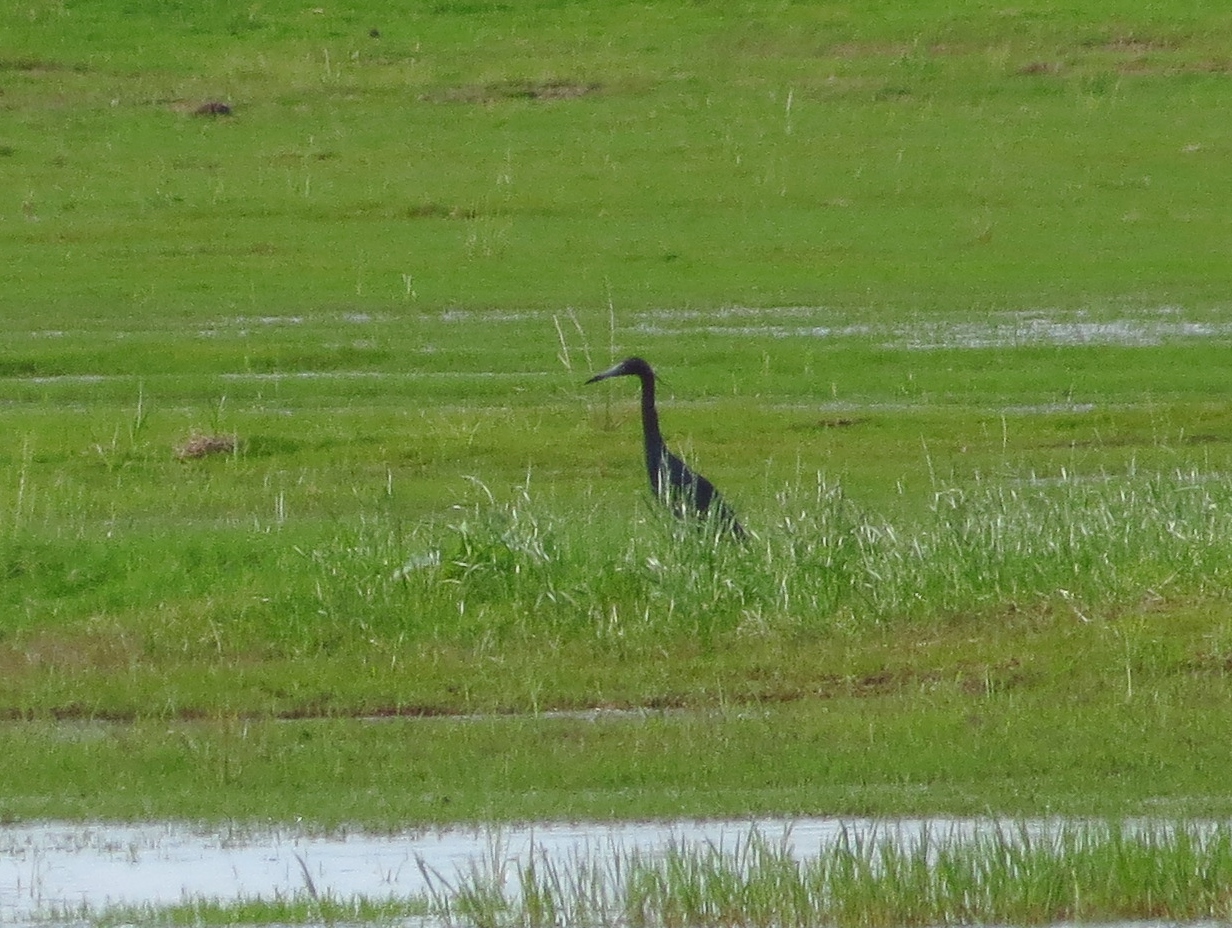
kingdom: Animalia
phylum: Chordata
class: Aves
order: Pelecaniformes
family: Ardeidae
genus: Egretta
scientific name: Egretta caerulea
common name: Little blue heron
